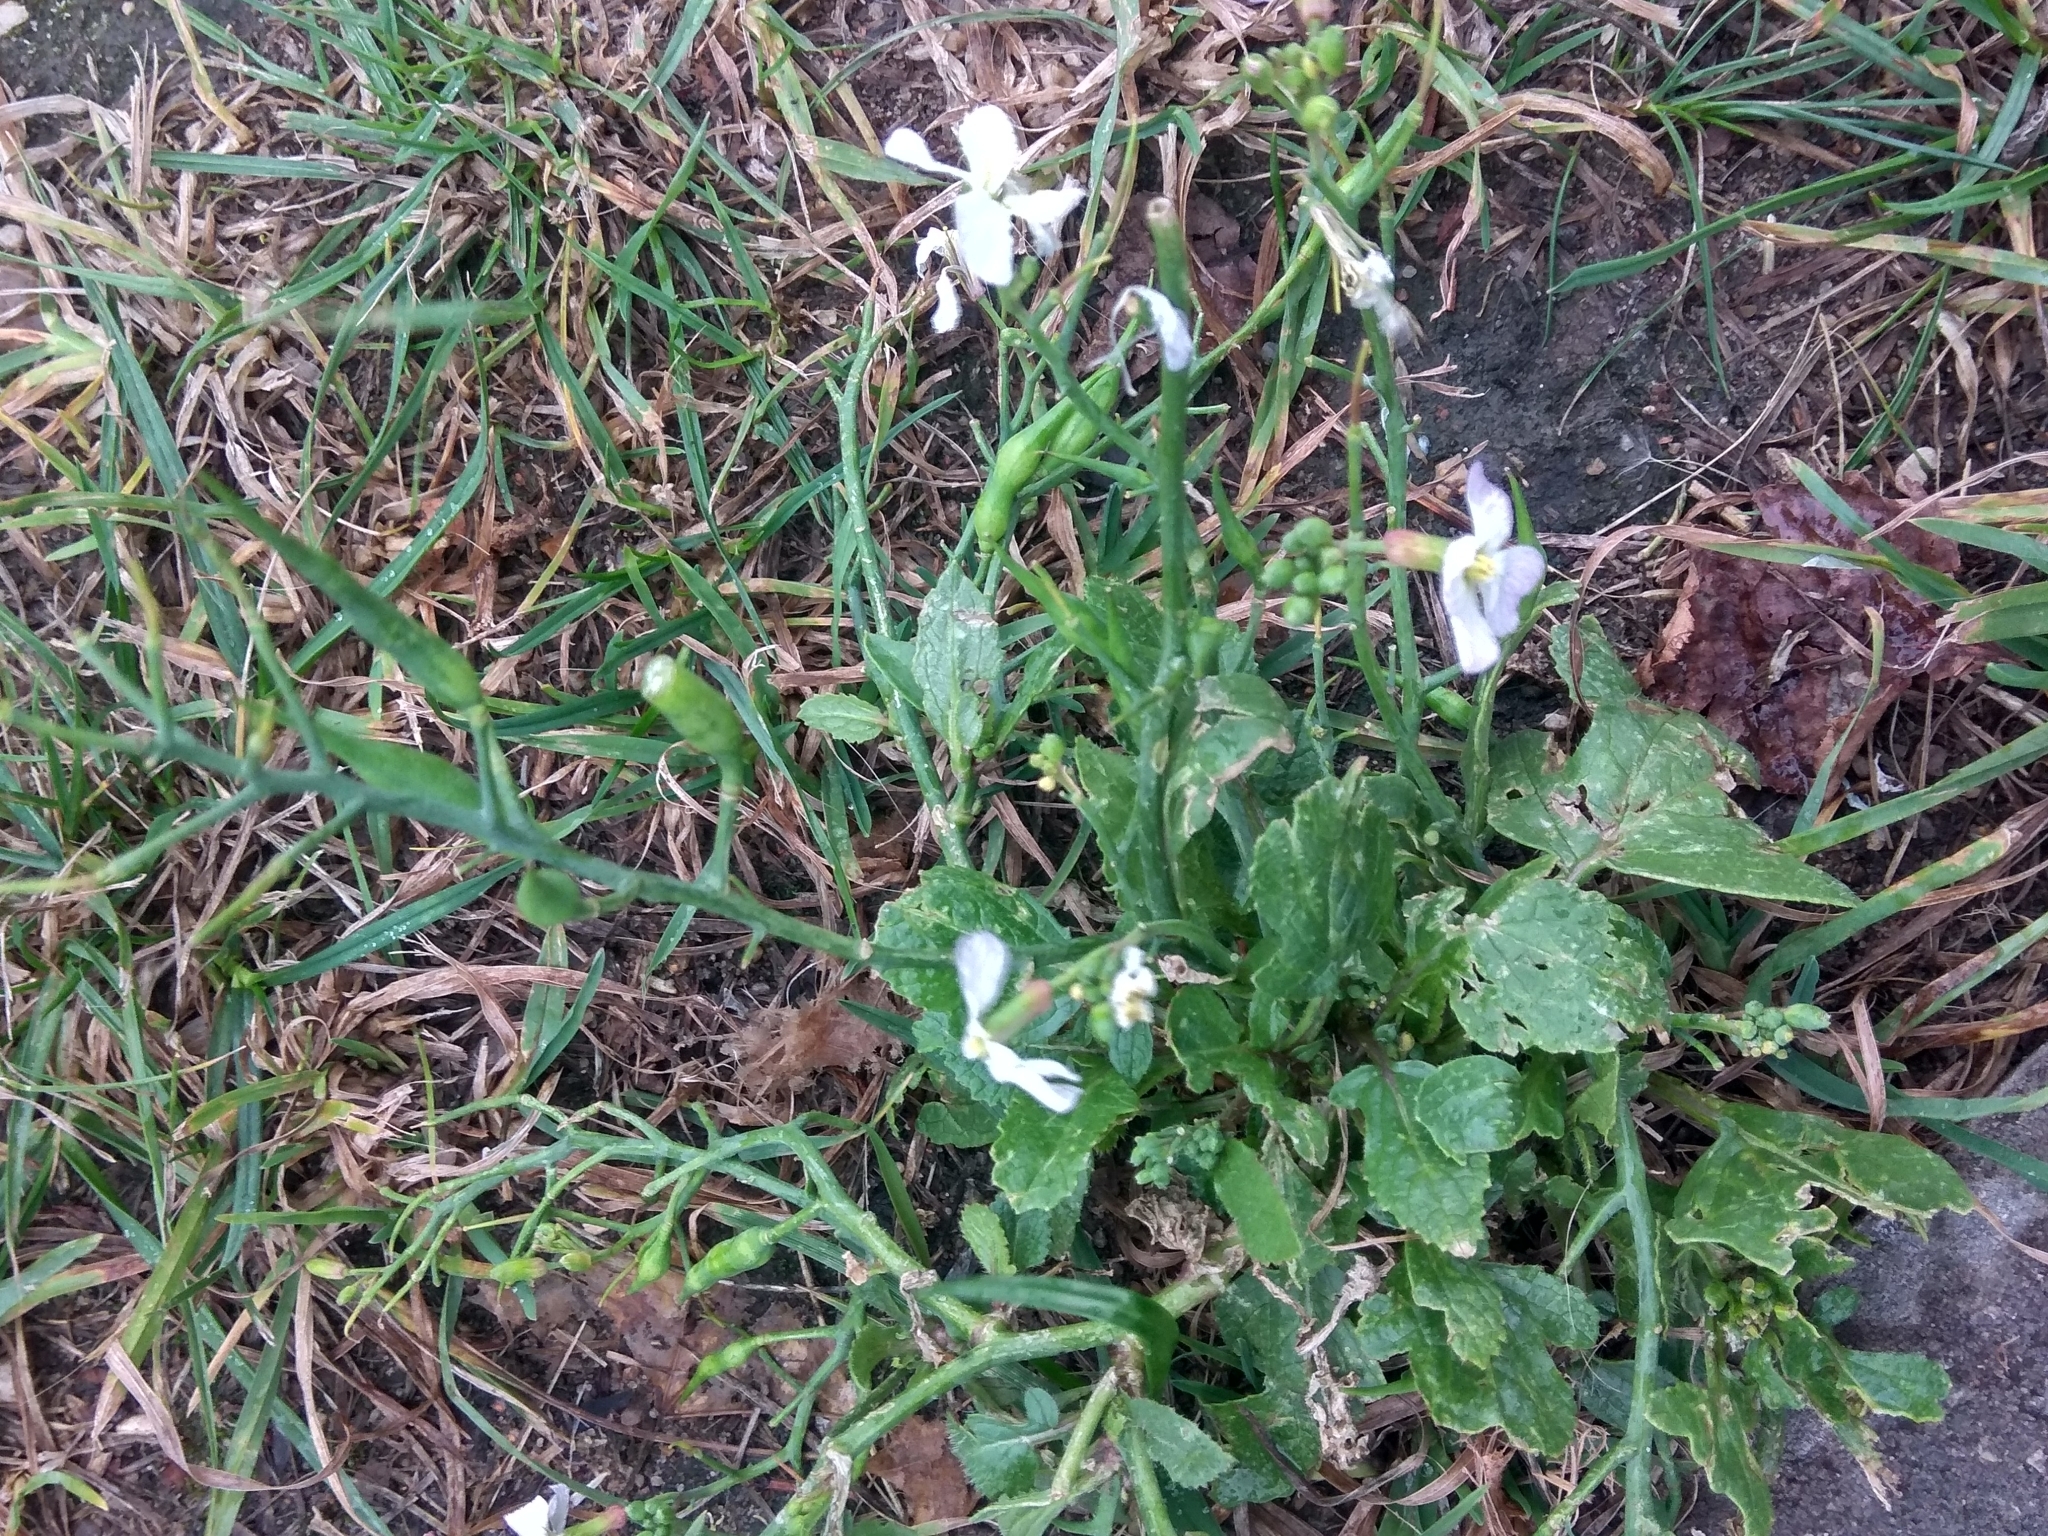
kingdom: Plantae
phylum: Tracheophyta
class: Magnoliopsida
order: Brassicales
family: Brassicaceae
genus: Raphanus
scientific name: Raphanus sativus
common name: Cultivated radish
